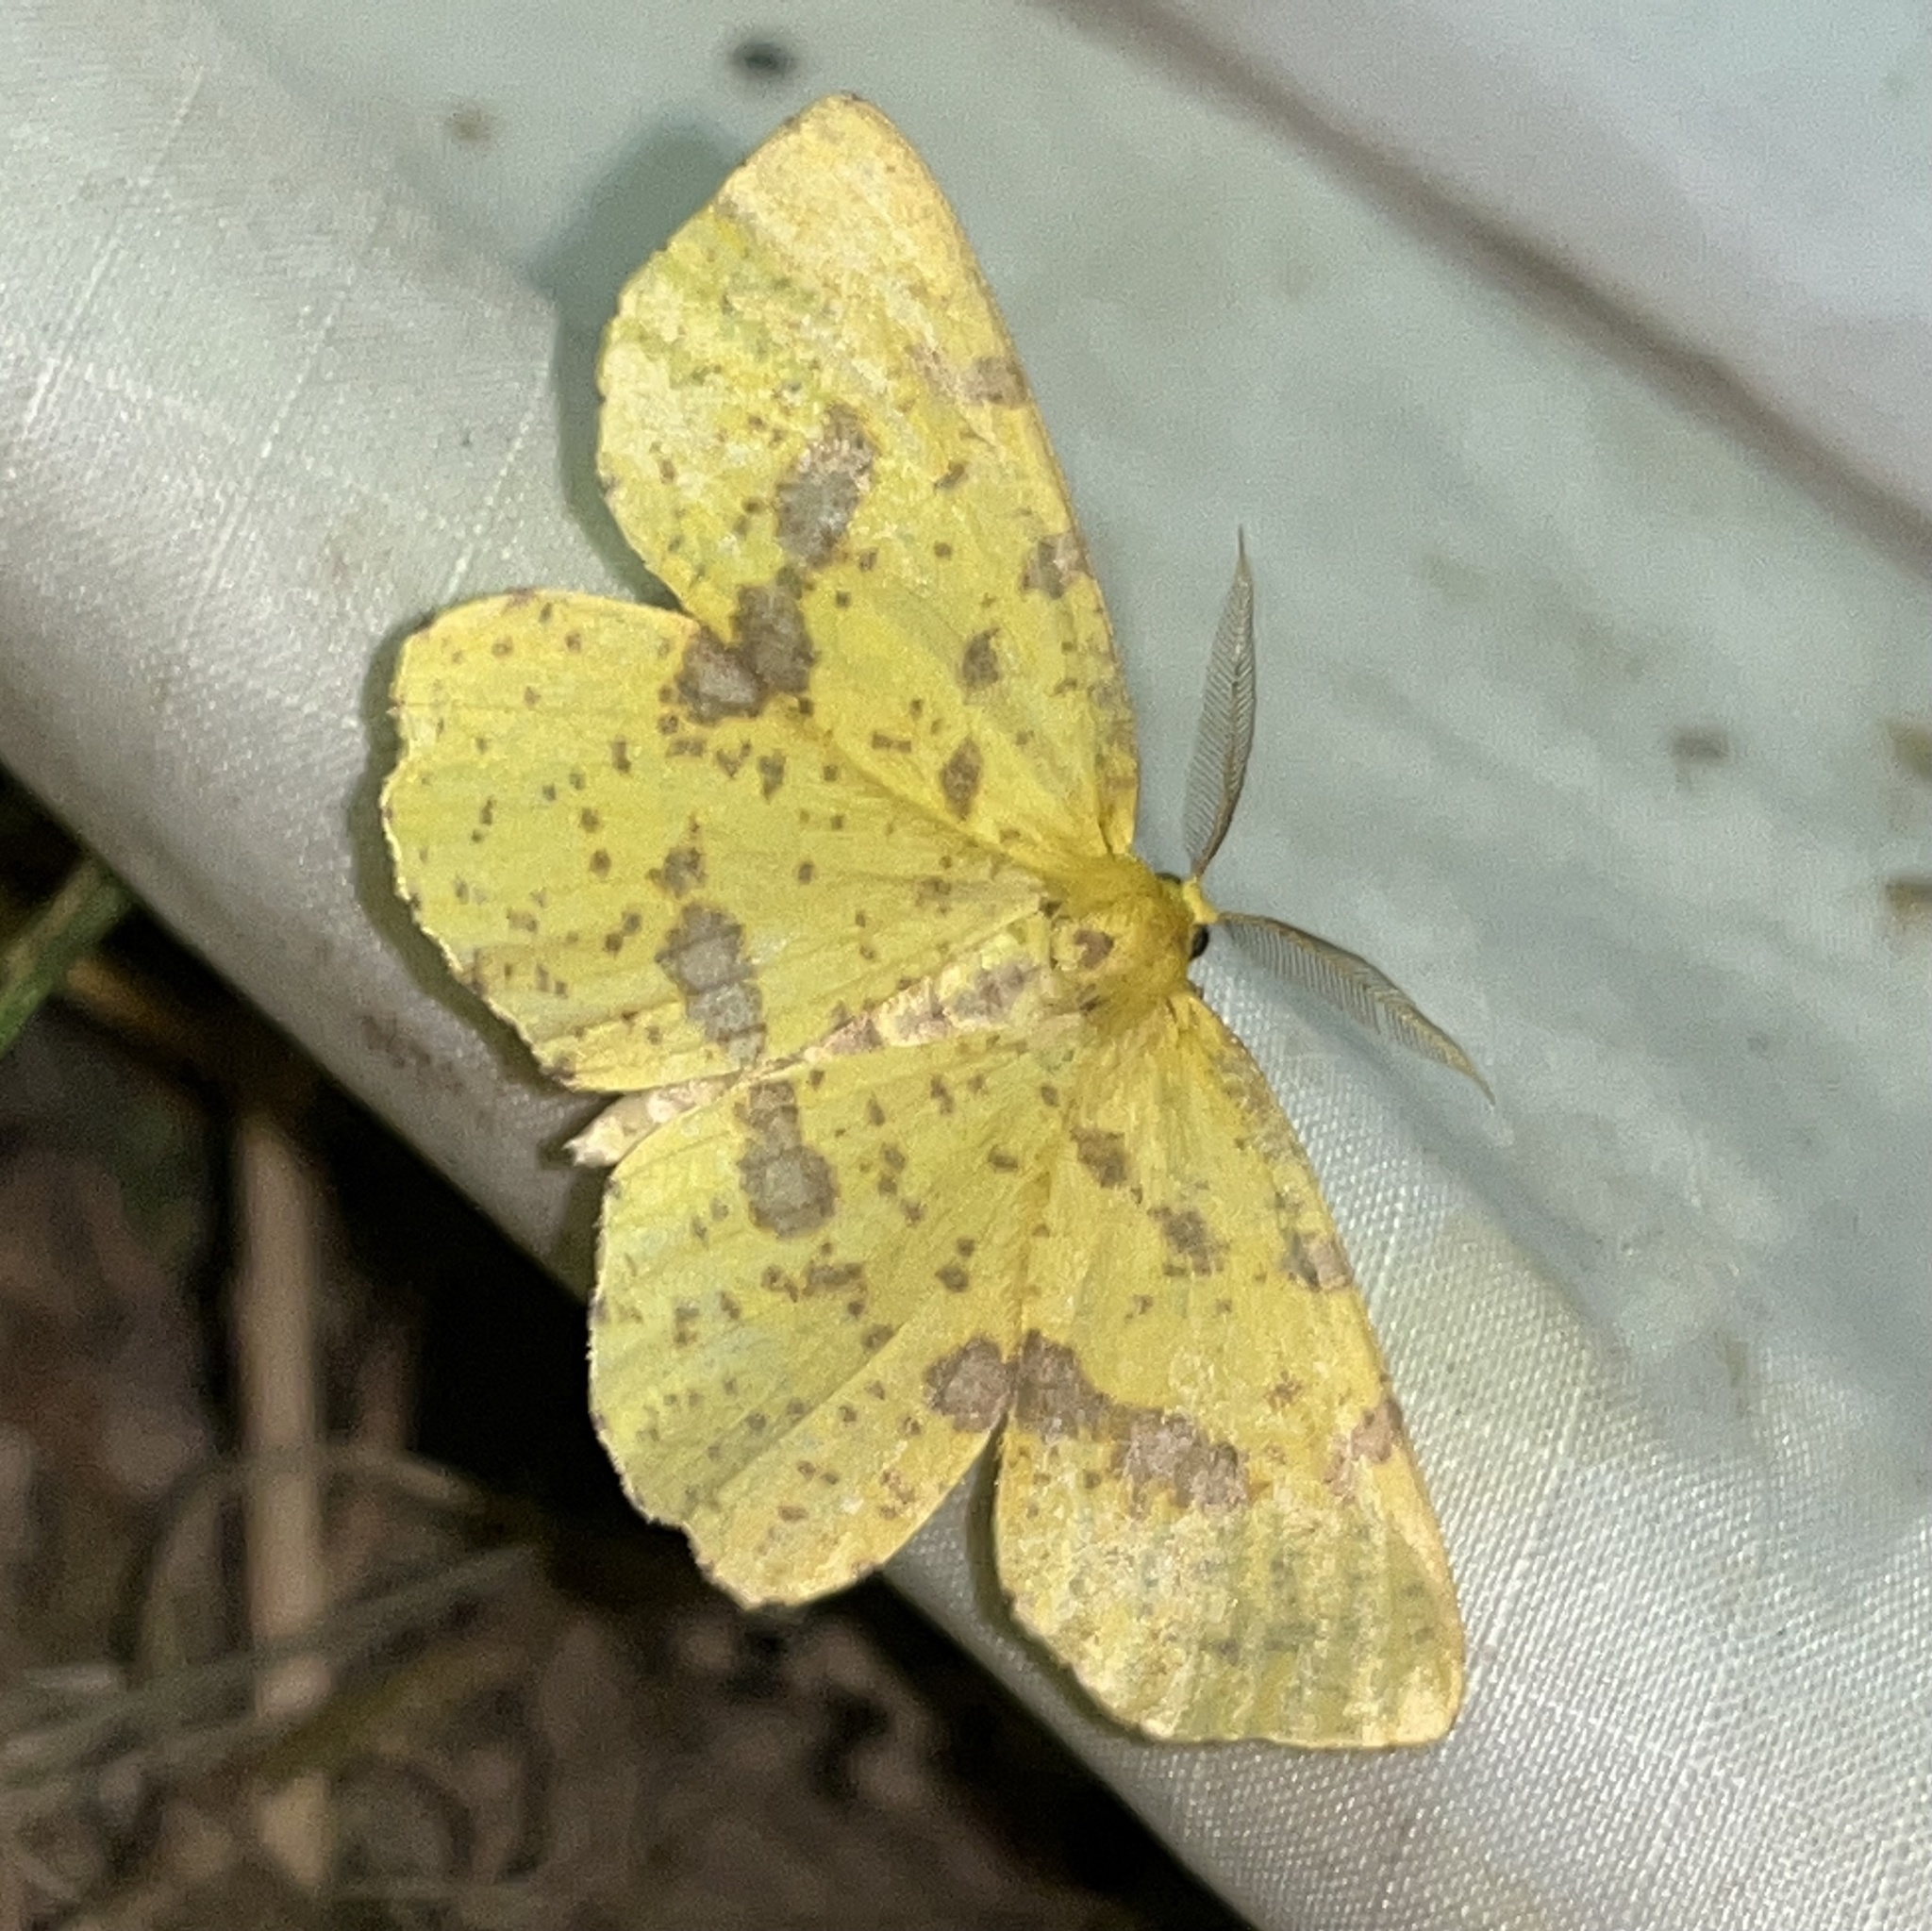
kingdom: Animalia
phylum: Arthropoda
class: Insecta
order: Lepidoptera
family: Geometridae
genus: Xanthotype
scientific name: Xanthotype
